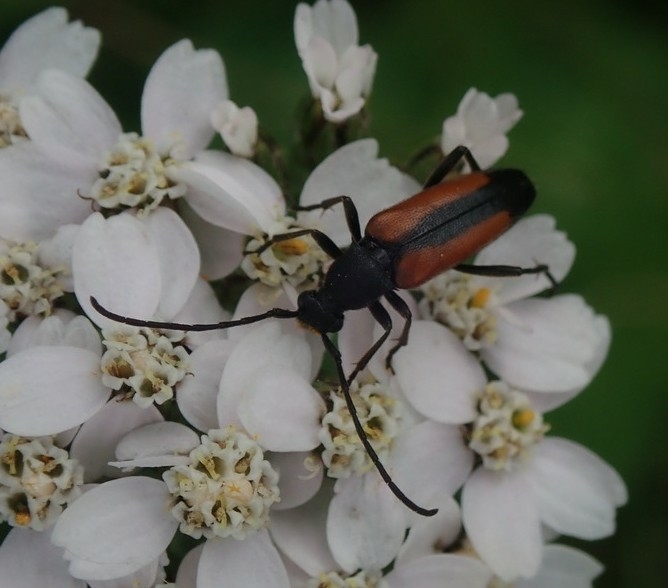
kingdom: Animalia
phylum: Arthropoda
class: Insecta
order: Coleoptera
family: Cerambycidae
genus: Stenurella
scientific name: Stenurella melanura
